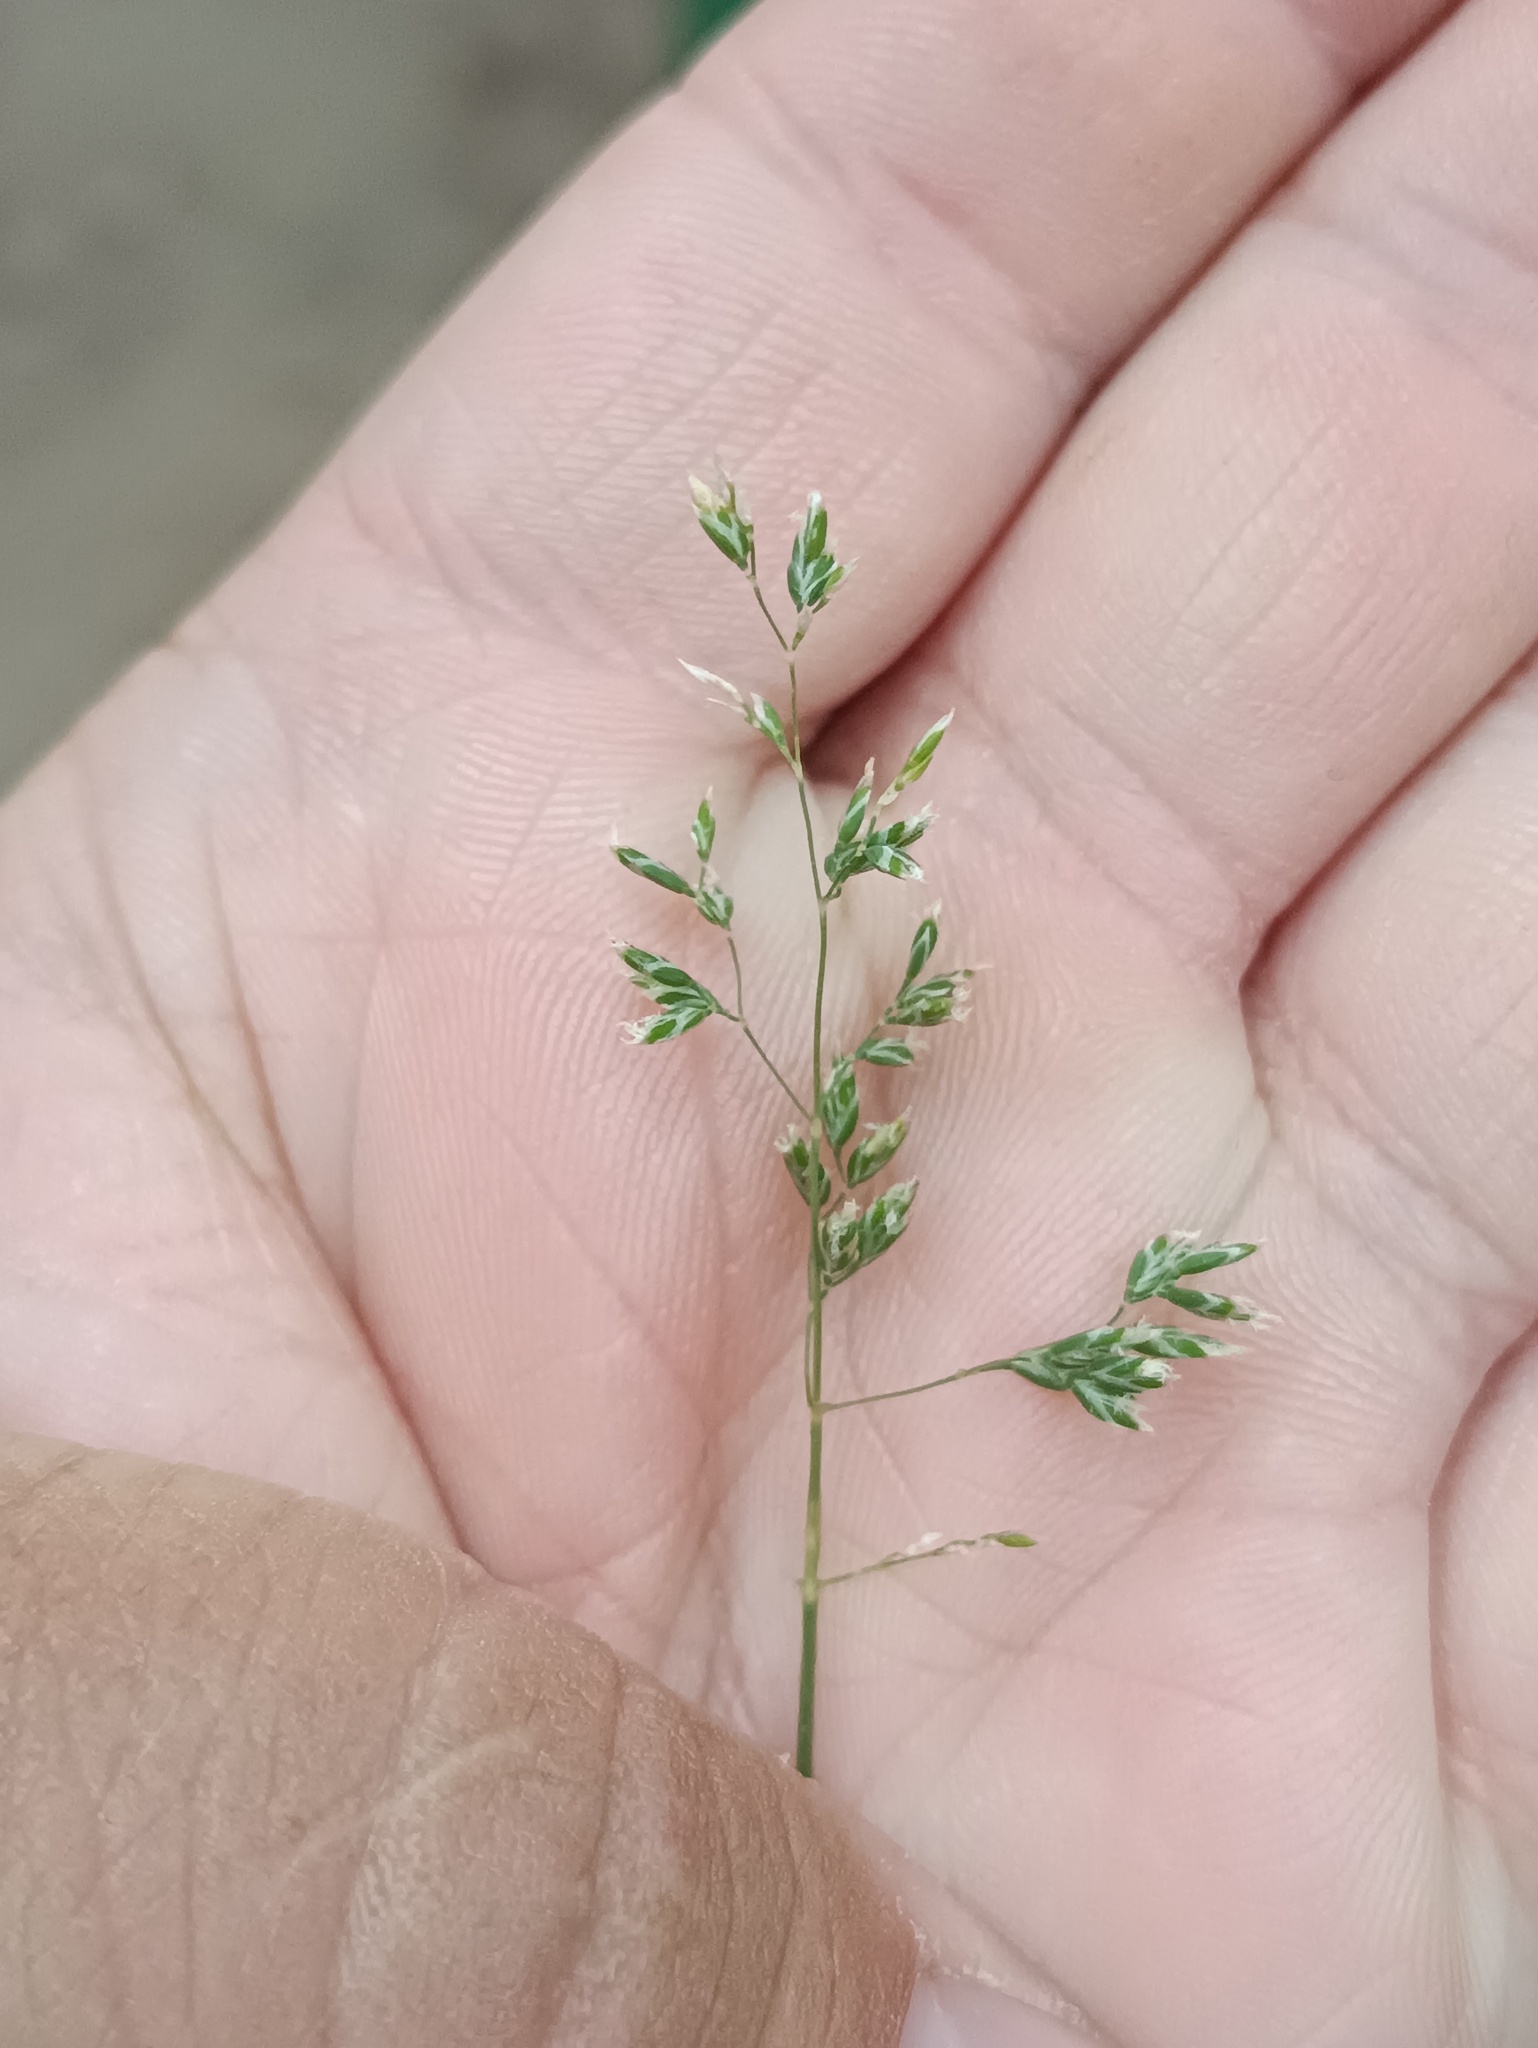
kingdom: Plantae
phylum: Tracheophyta
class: Liliopsida
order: Poales
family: Poaceae
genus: Poa
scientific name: Poa annua
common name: Annual bluegrass
